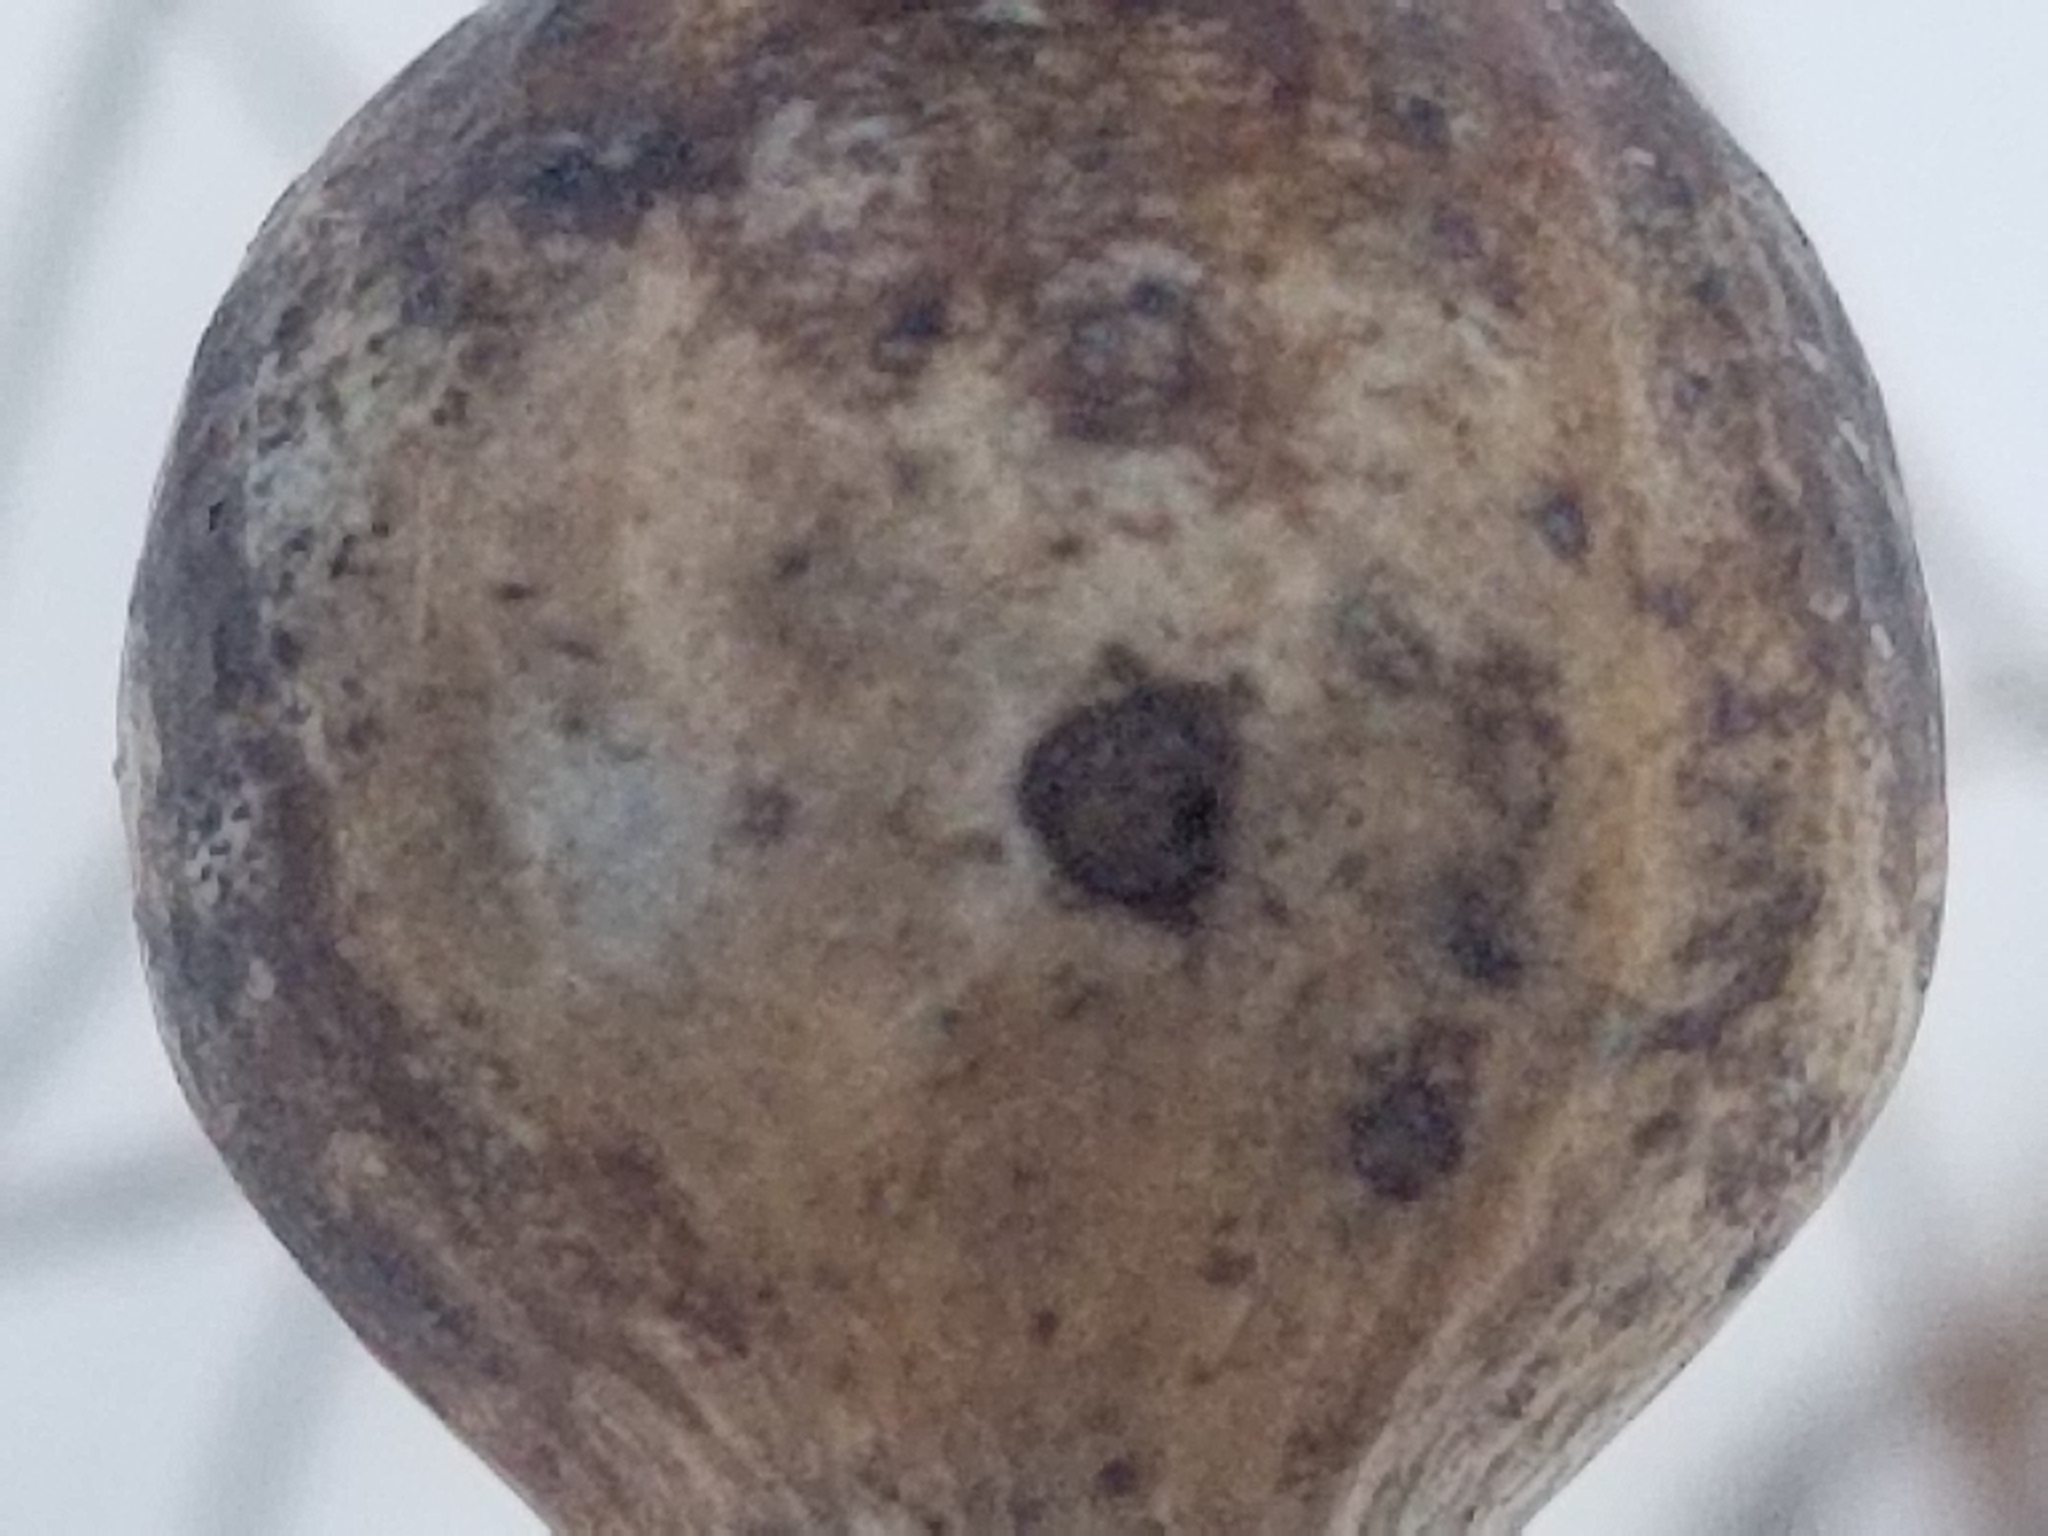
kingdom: Animalia
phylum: Arthropoda
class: Insecta
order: Diptera
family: Tephritidae
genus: Eurosta
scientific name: Eurosta solidaginis
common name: Goldenrod gall fly
